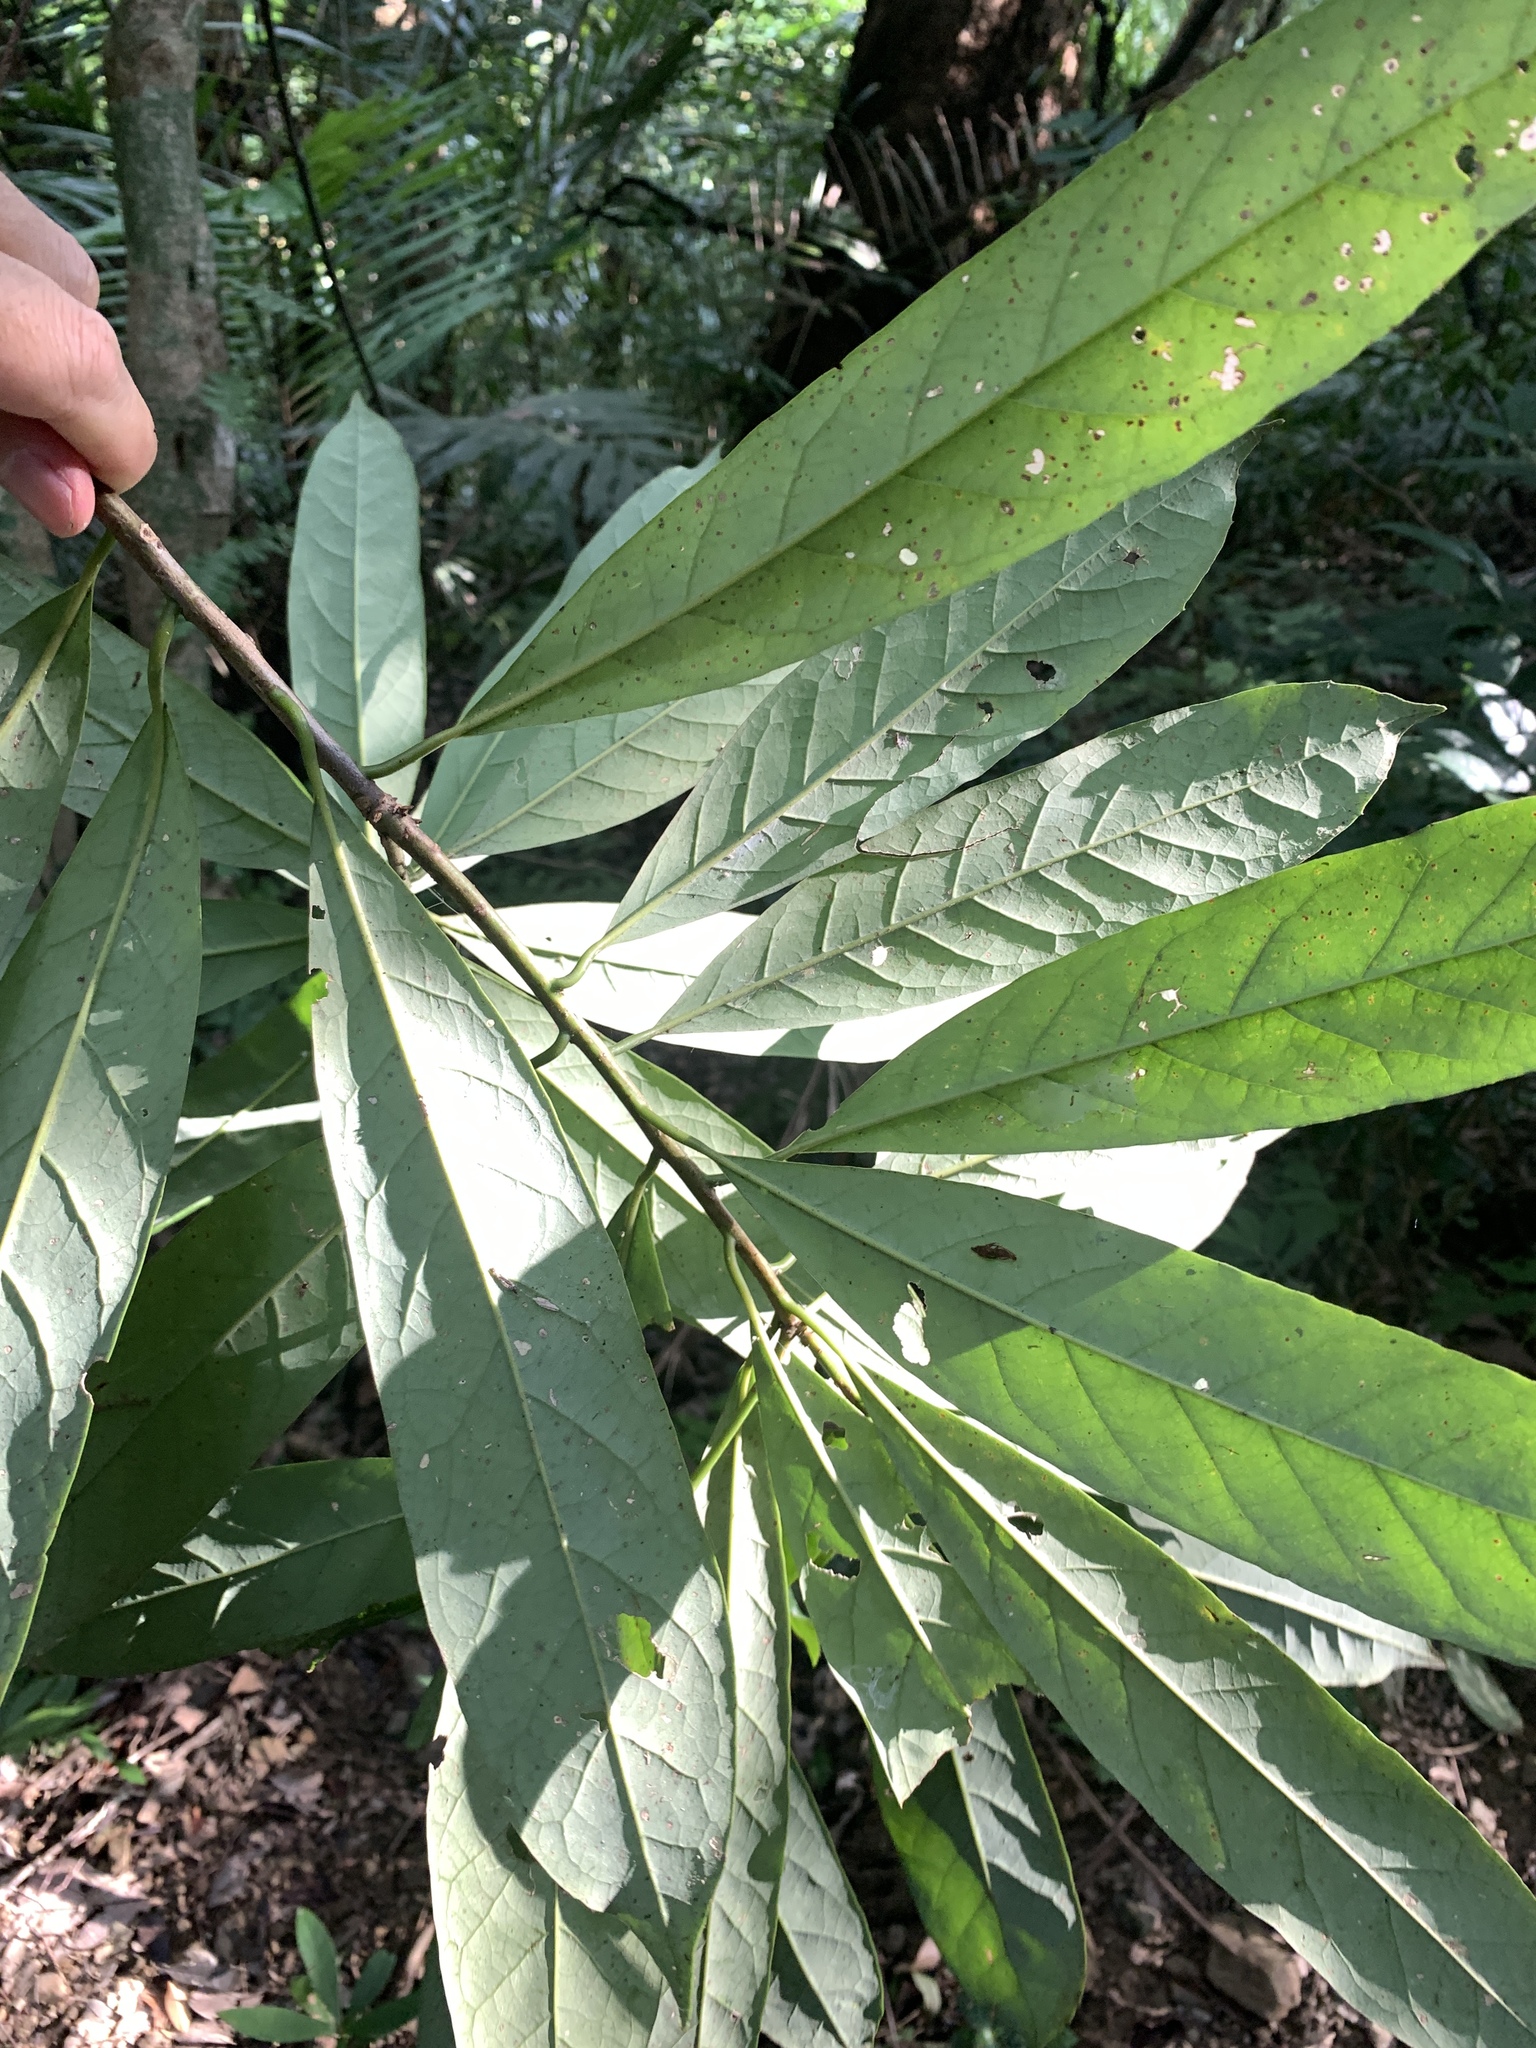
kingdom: Plantae
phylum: Tracheophyta
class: Magnoliopsida
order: Ericales
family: Symplocaceae
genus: Symplocos
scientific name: Symplocos glauca
